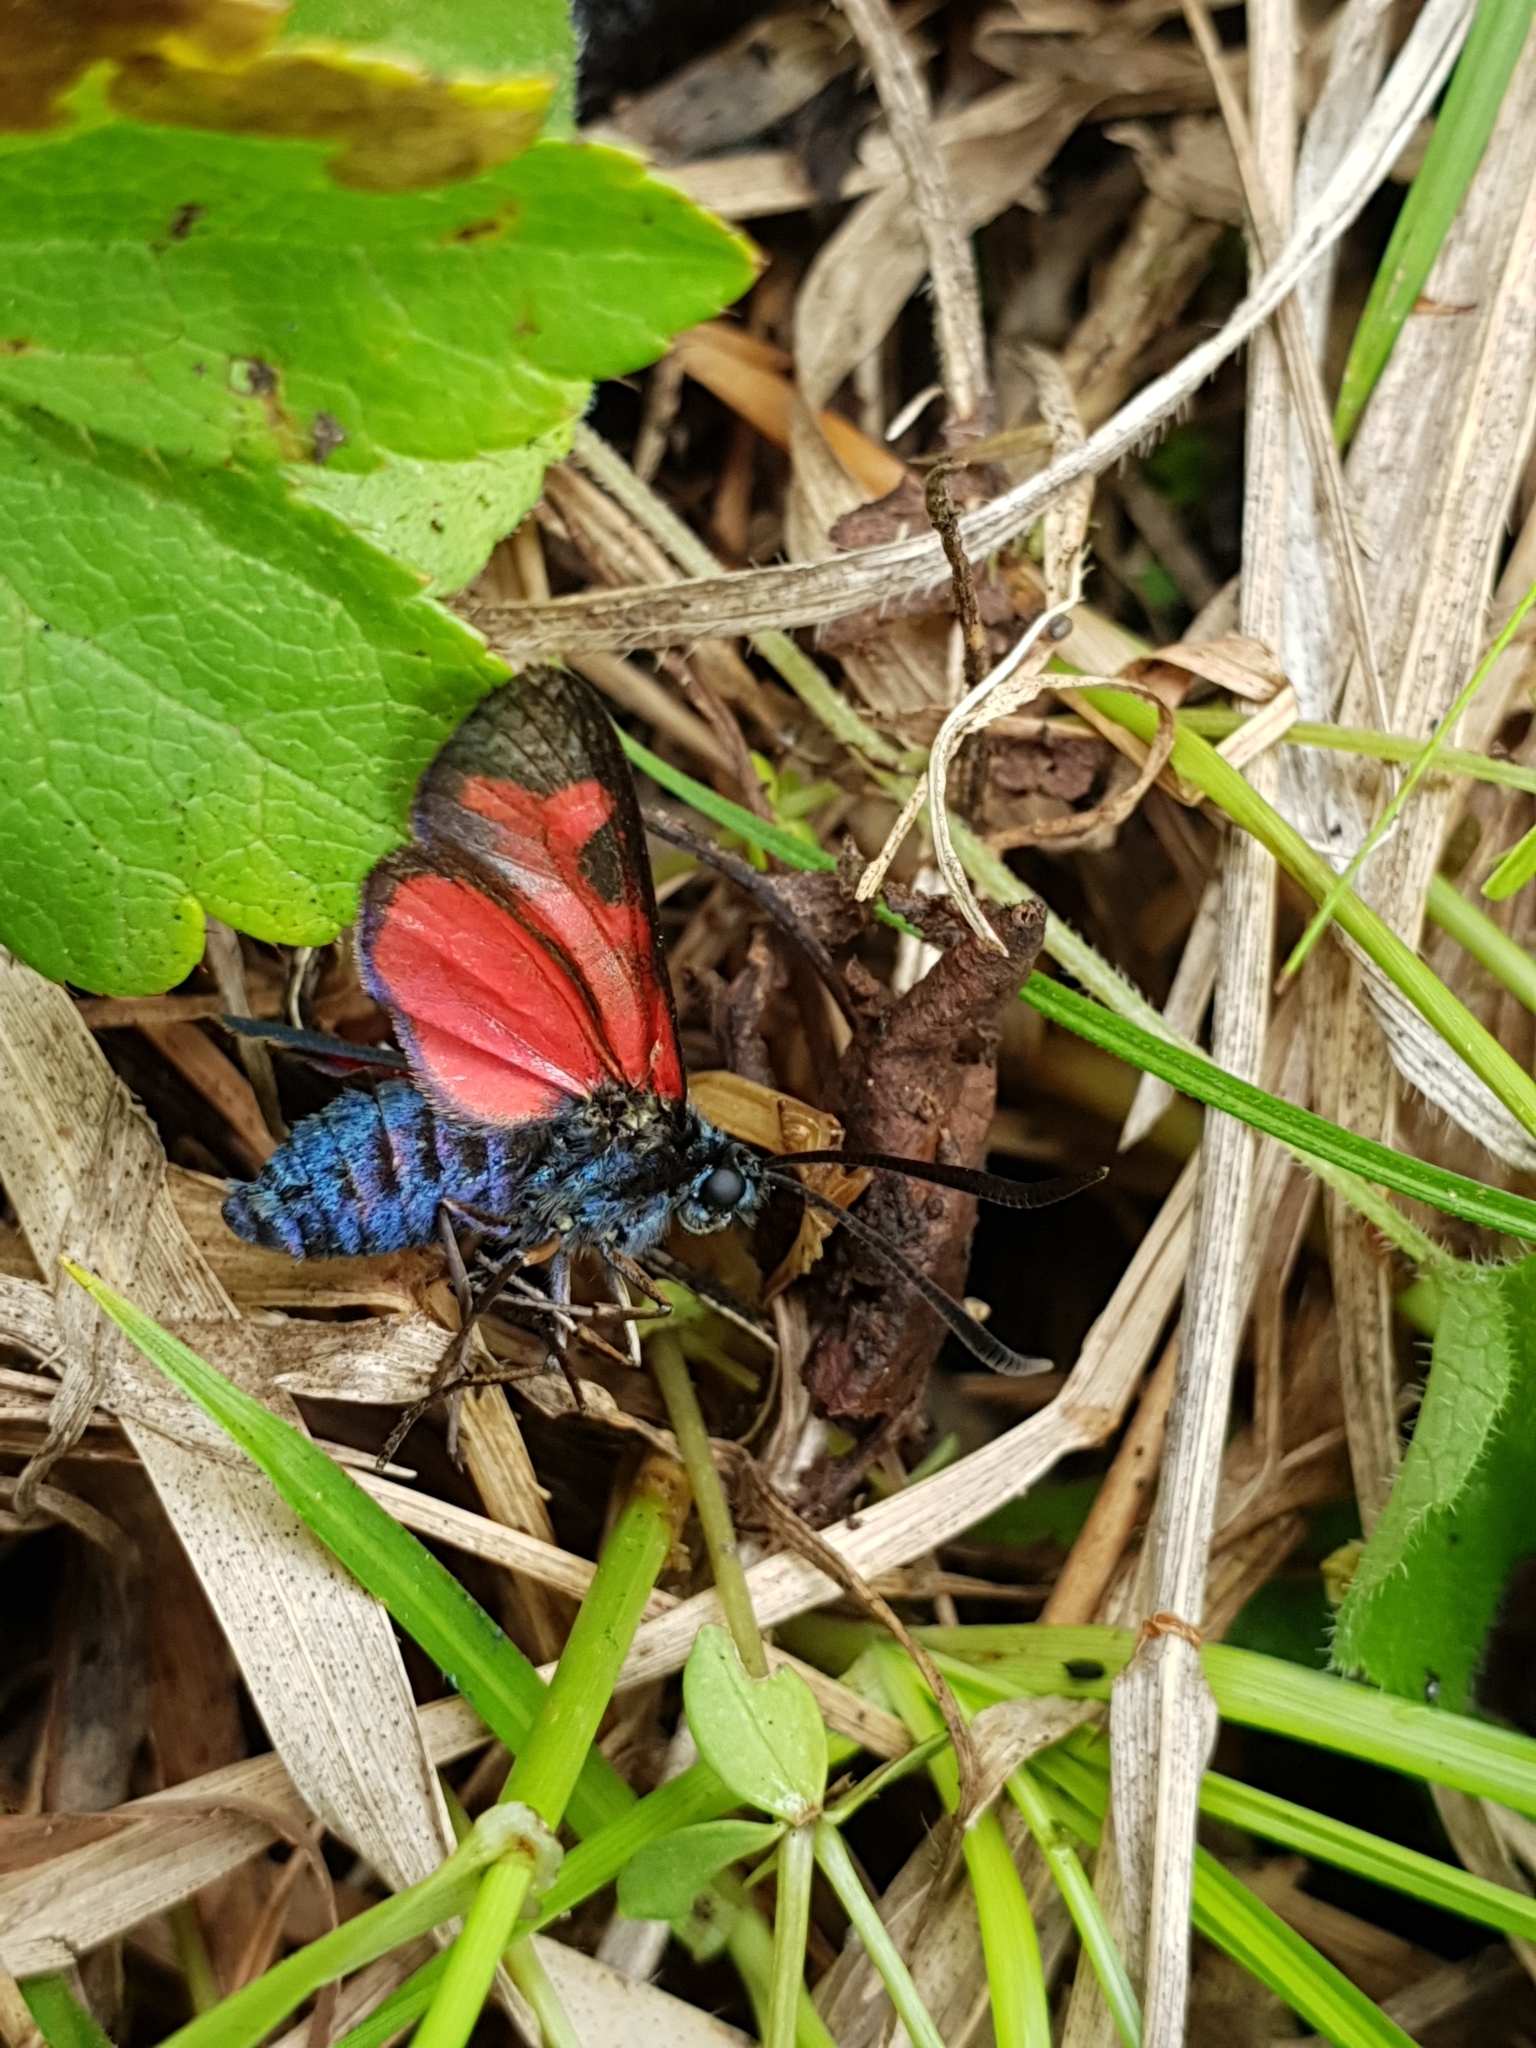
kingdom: Animalia
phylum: Arthropoda
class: Insecta
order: Lepidoptera
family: Zygaenidae
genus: Zygaena
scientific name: Zygaena filipendulae
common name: Six-spot burnet
